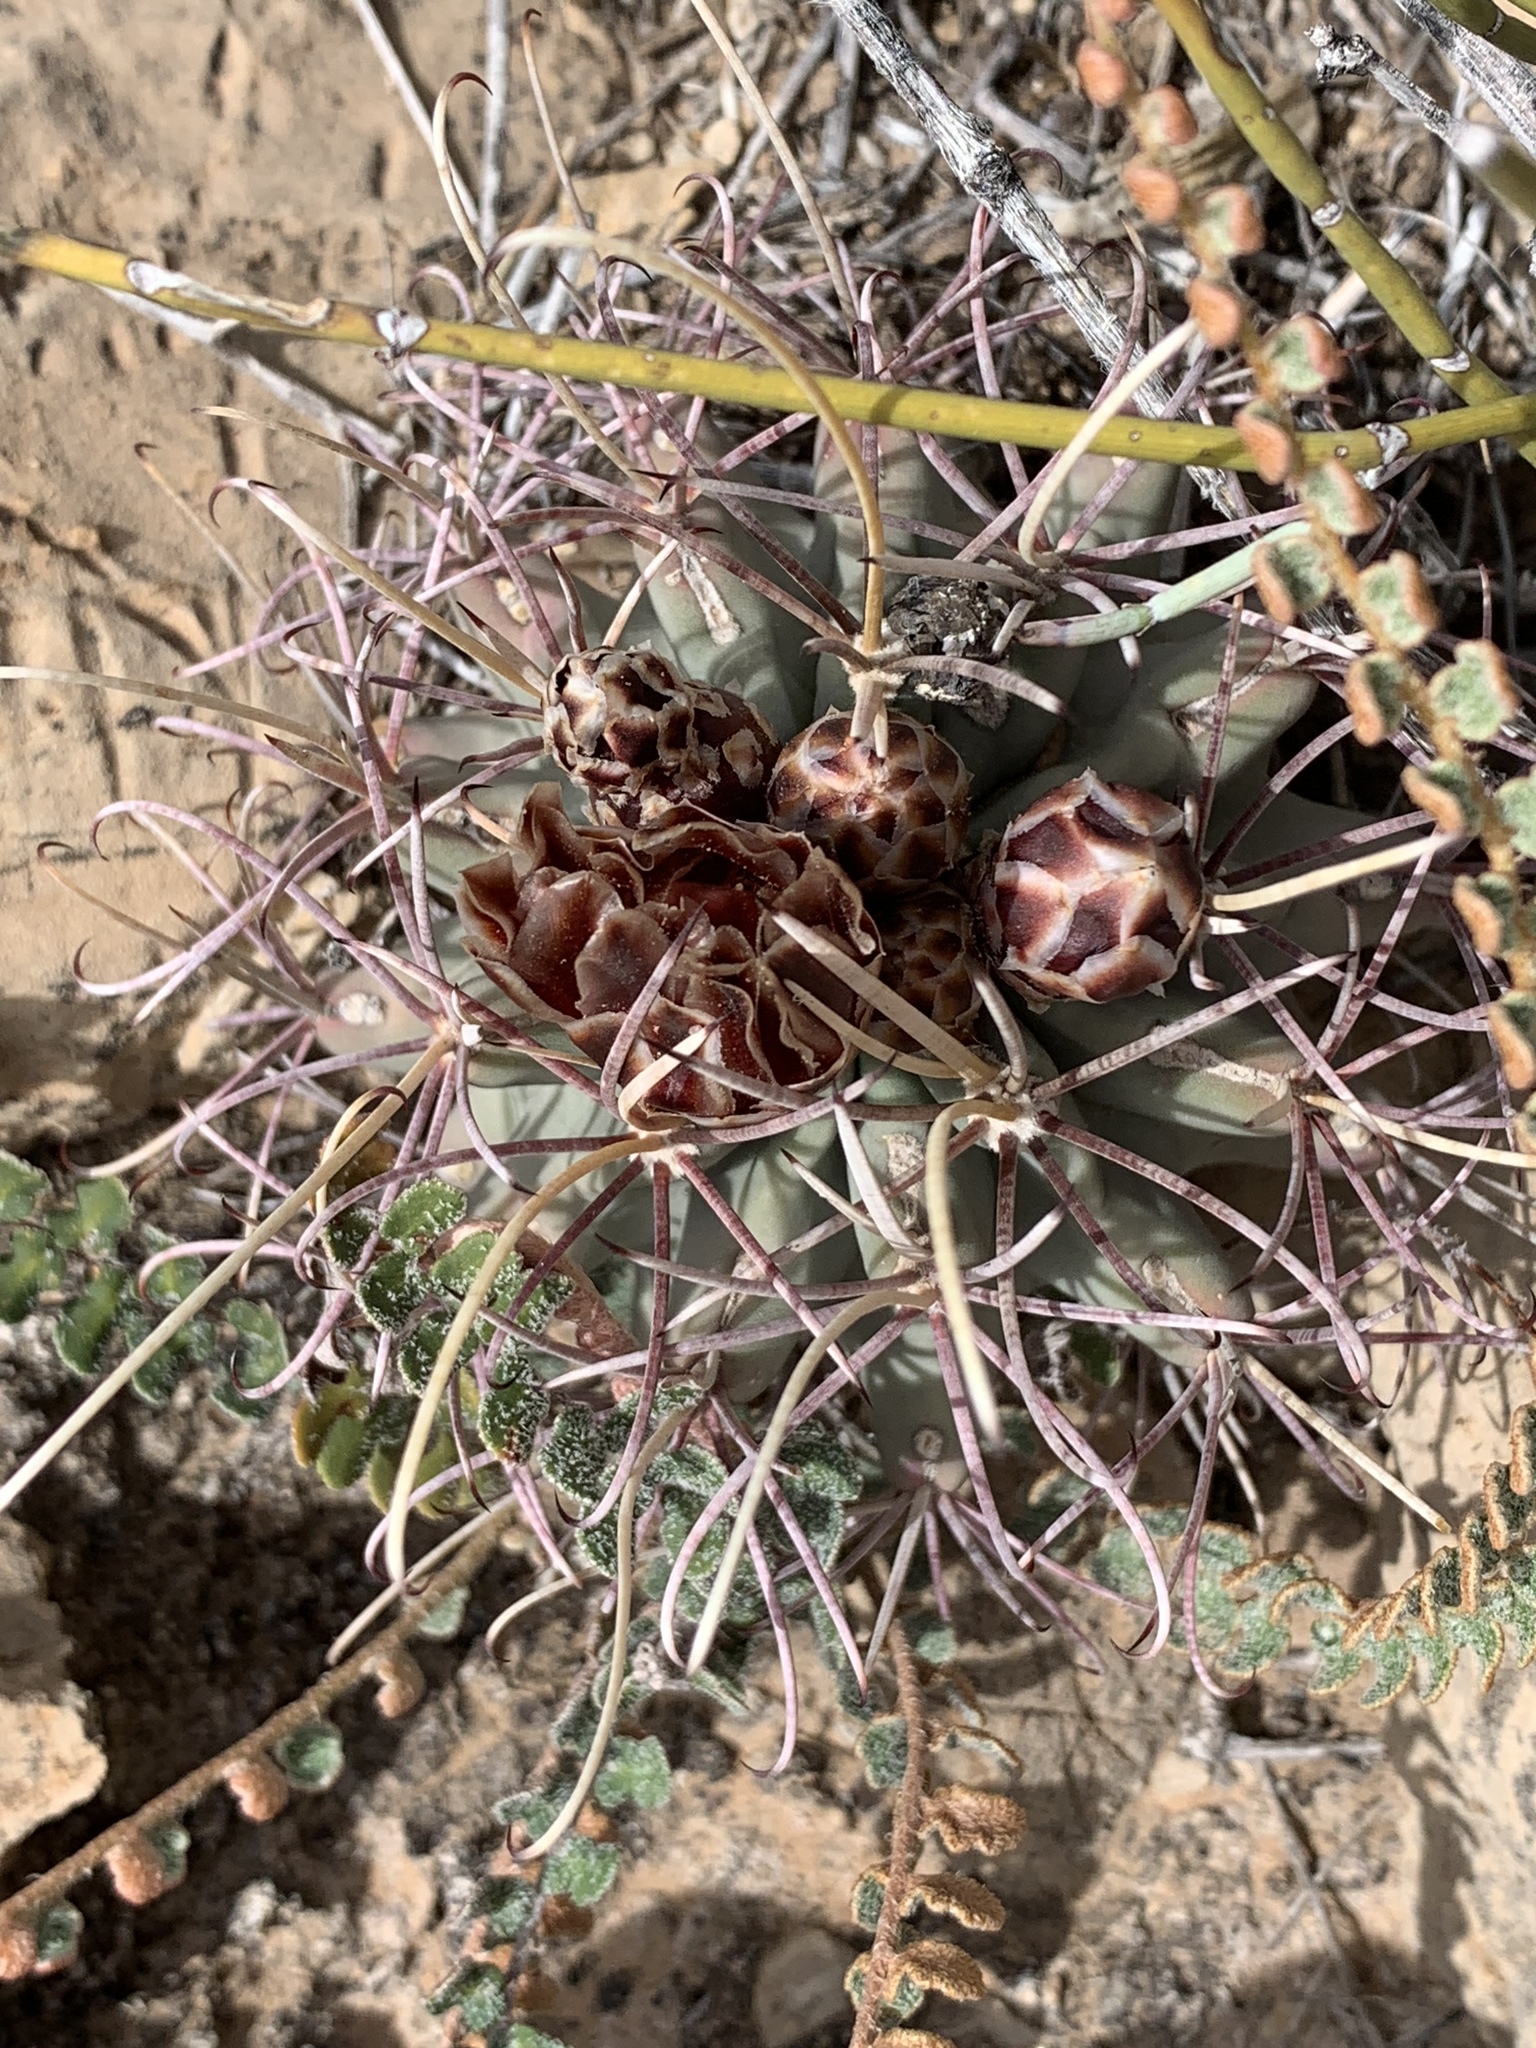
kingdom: Plantae
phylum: Tracheophyta
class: Magnoliopsida
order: Caryophyllales
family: Cactaceae
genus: Ferocactus
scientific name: Ferocactus uncinatus
